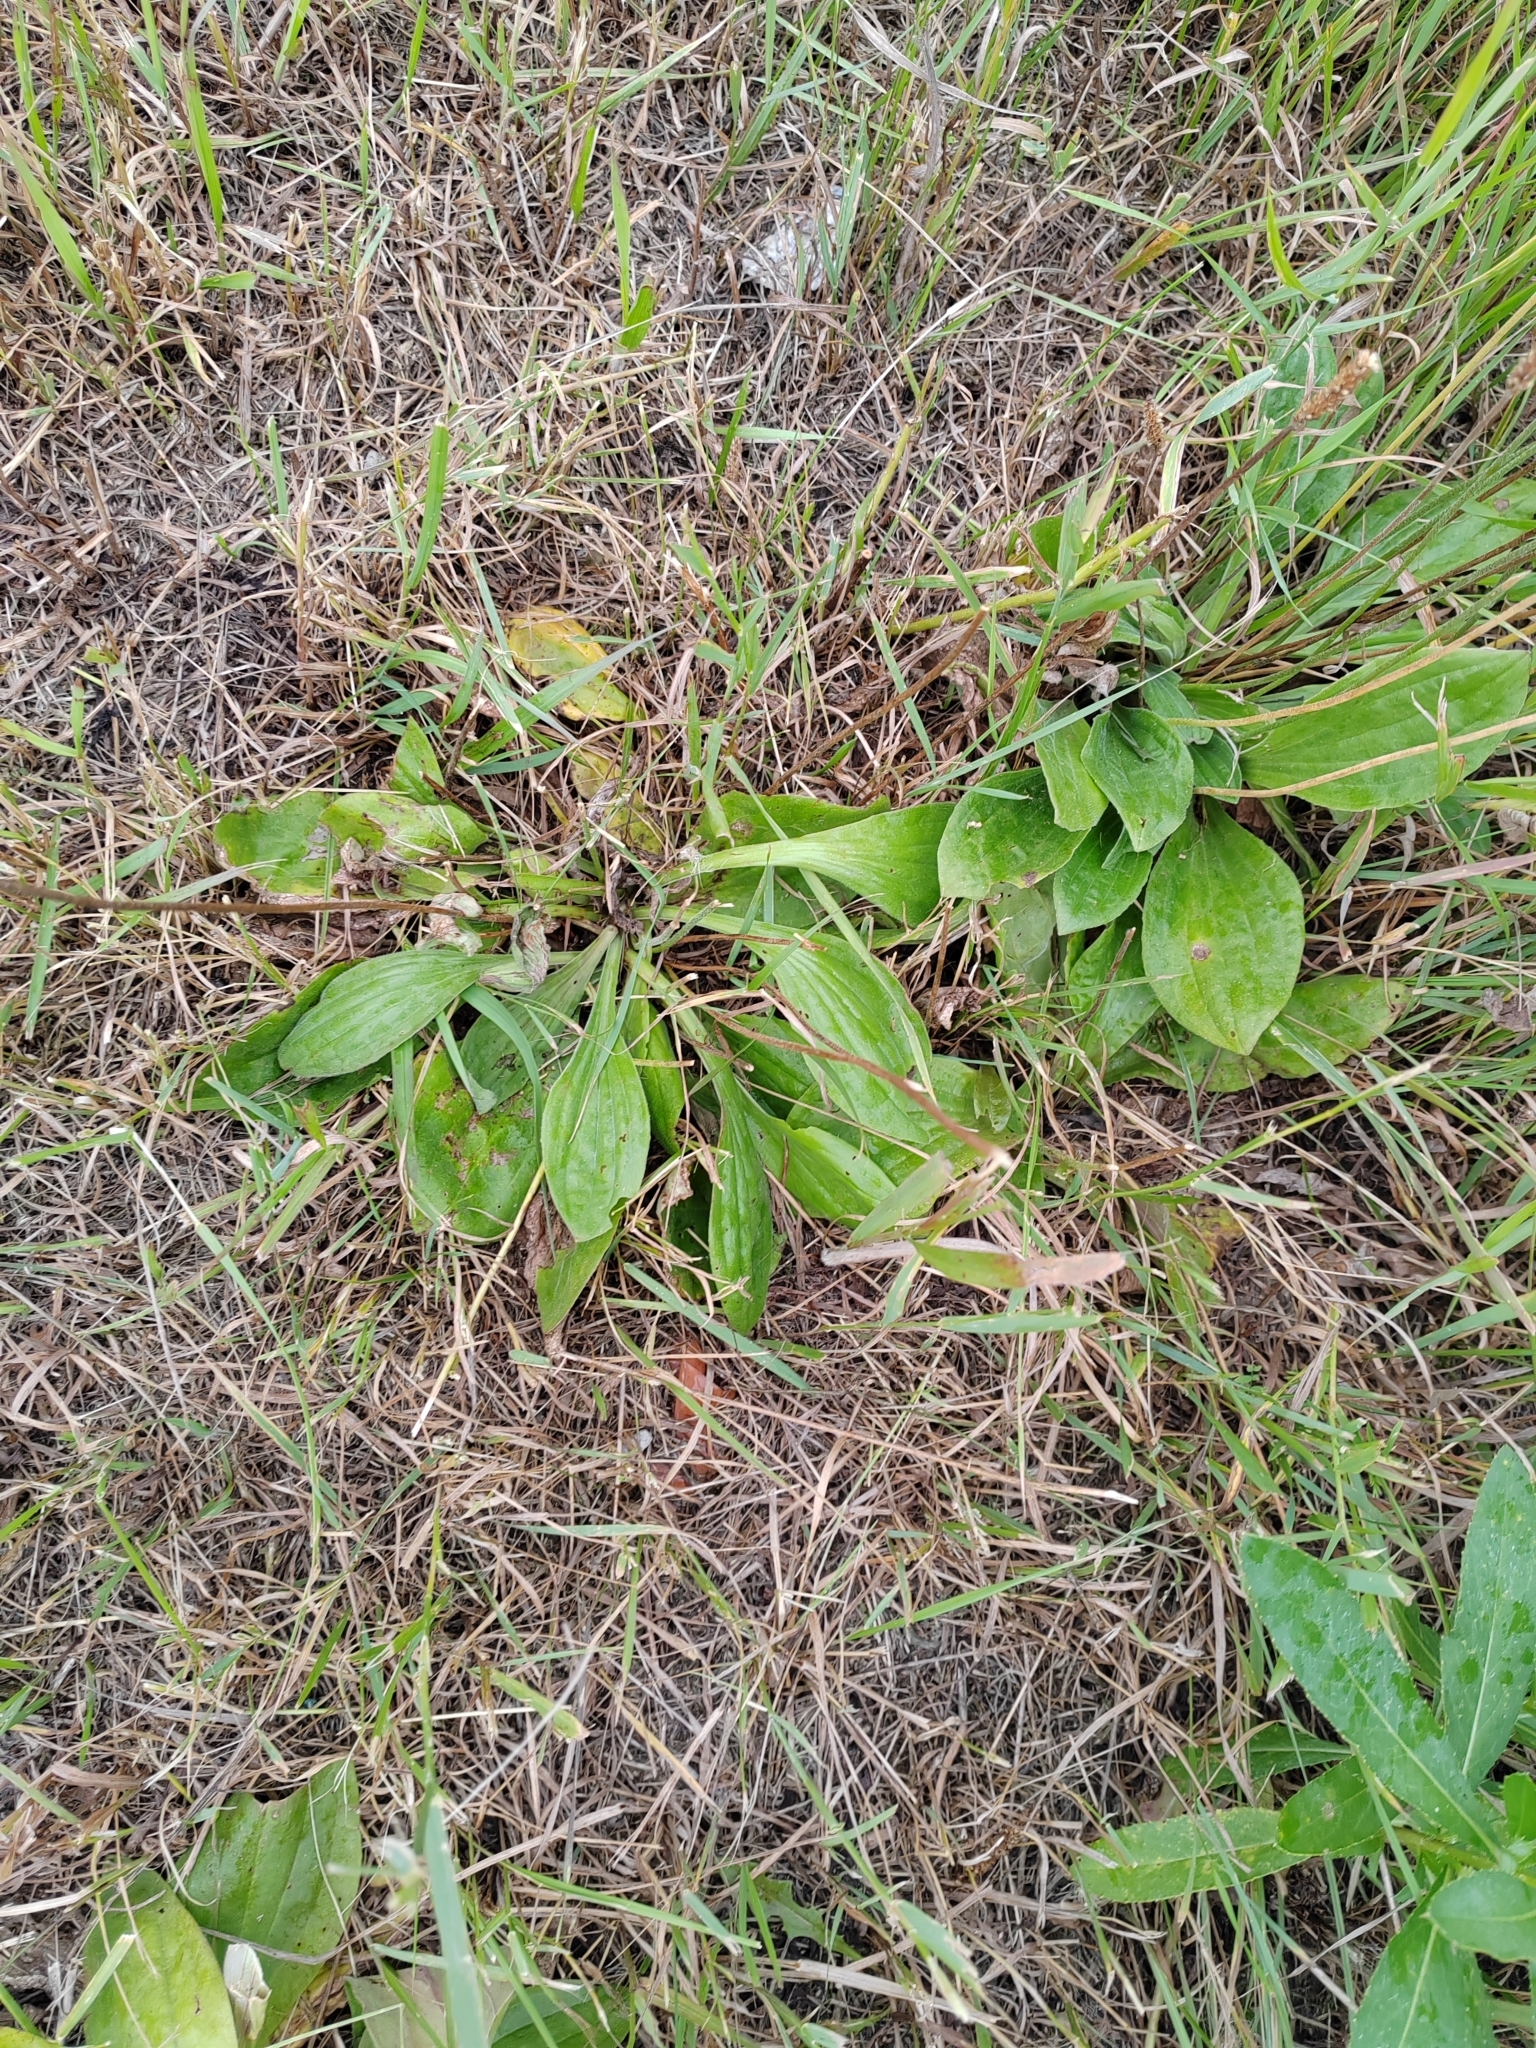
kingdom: Plantae
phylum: Tracheophyta
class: Magnoliopsida
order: Lamiales
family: Plantaginaceae
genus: Plantago
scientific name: Plantago media
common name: Hoary plantain
